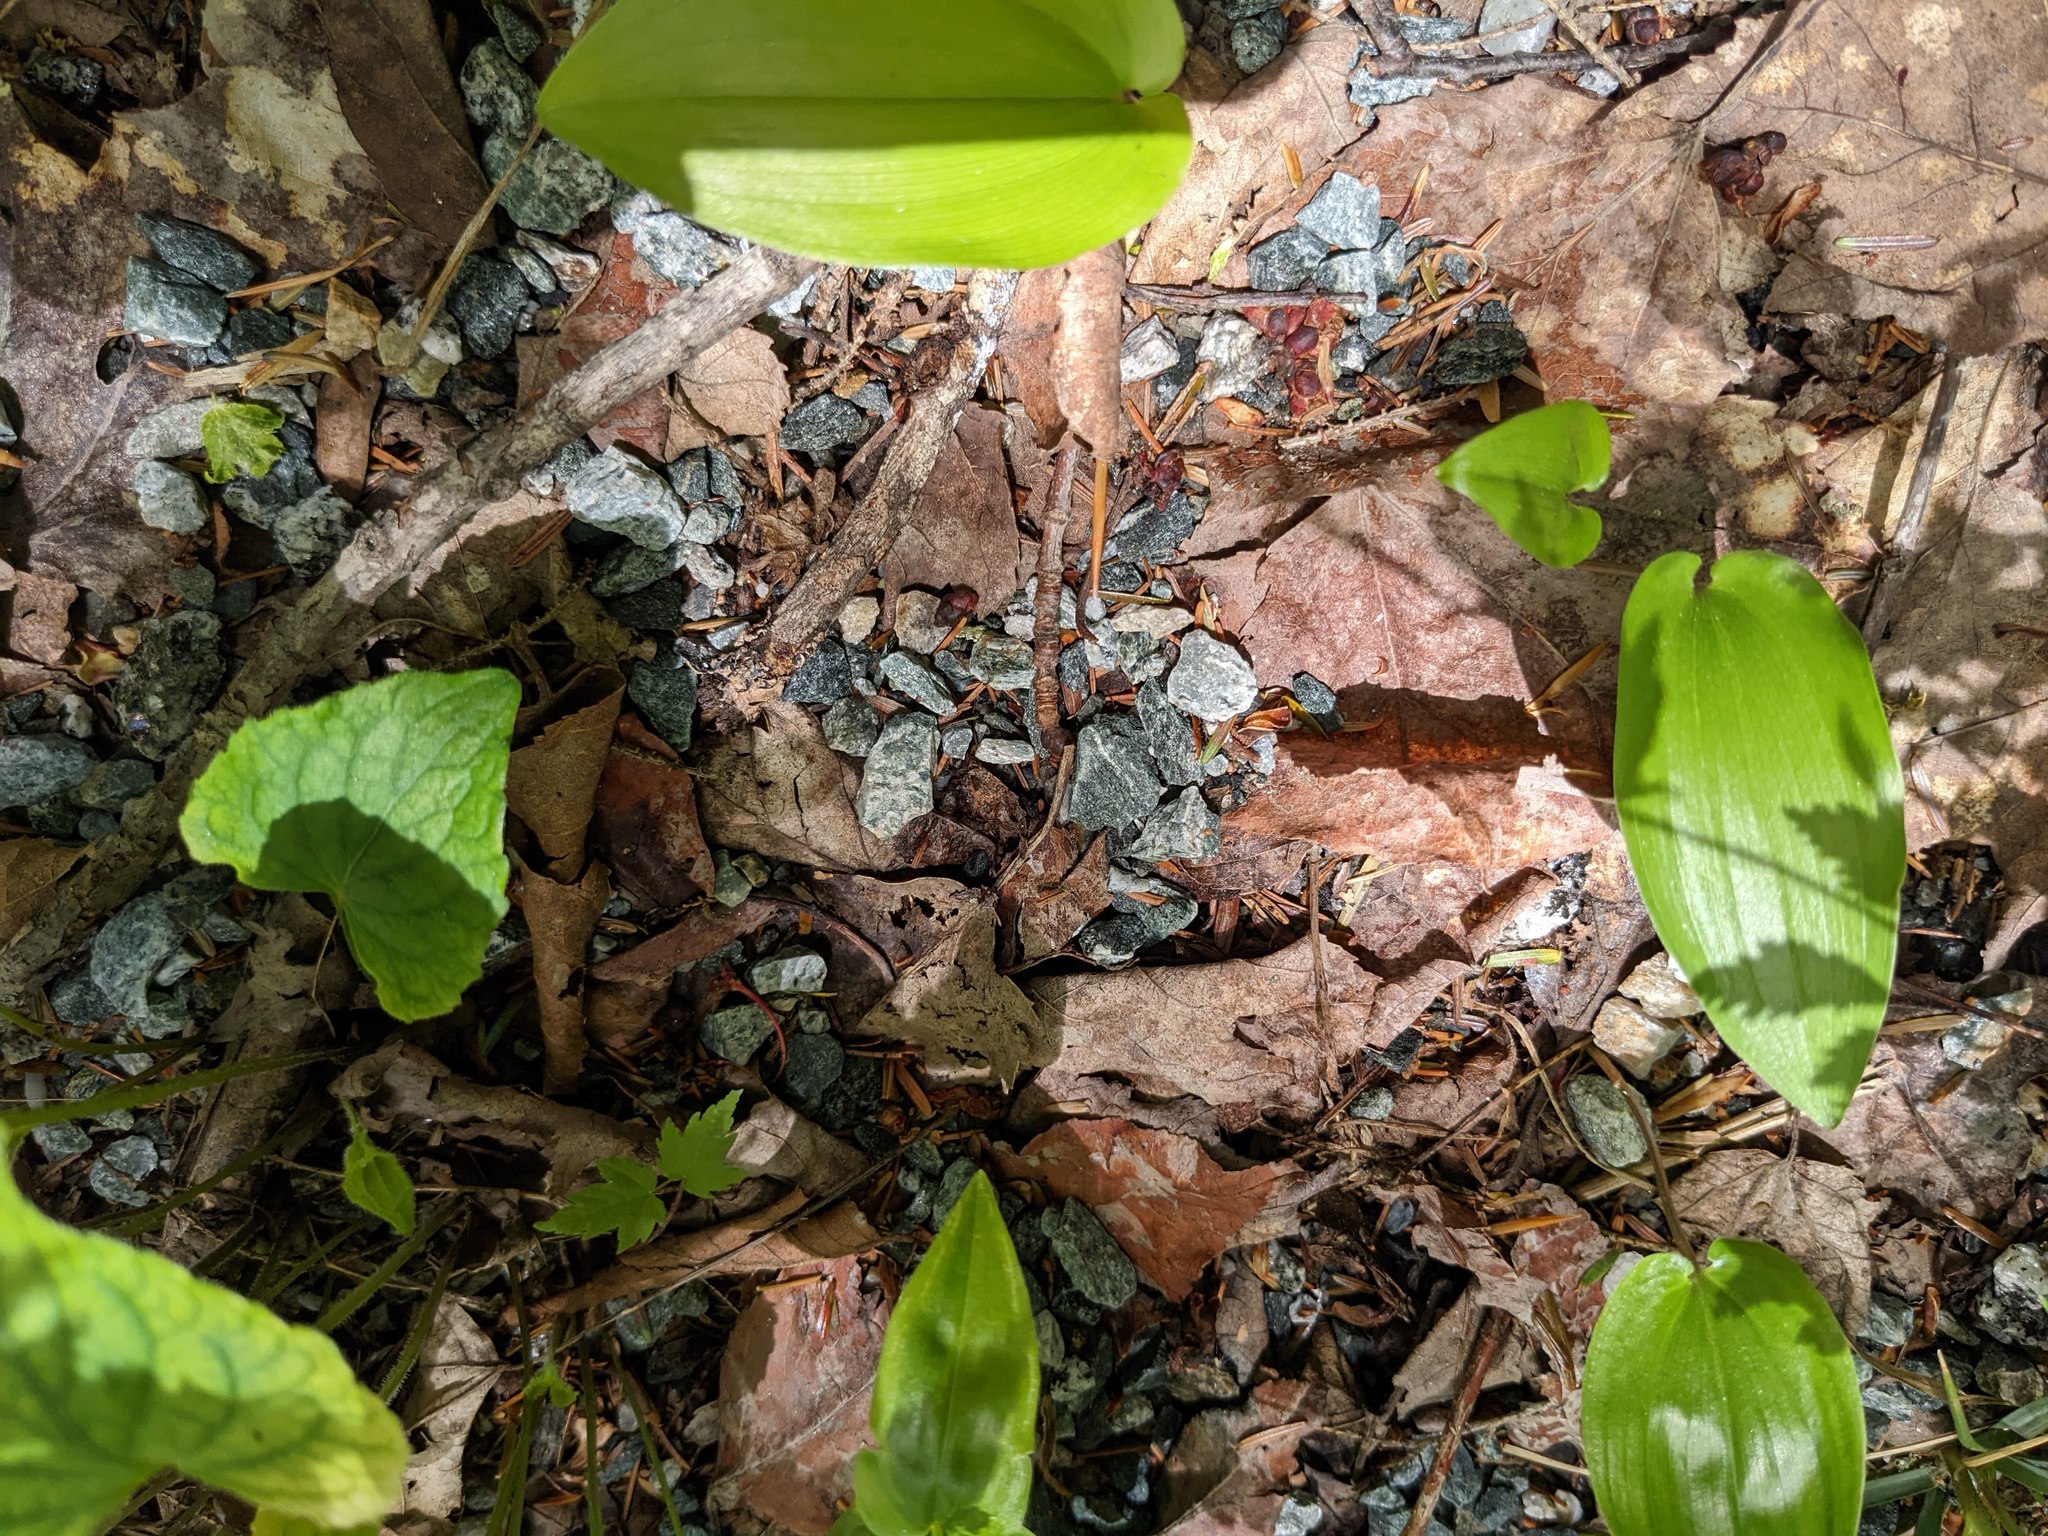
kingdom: Plantae
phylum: Tracheophyta
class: Liliopsida
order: Asparagales
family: Asparagaceae
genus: Maianthemum
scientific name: Maianthemum canadense
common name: False lily-of-the-valley
